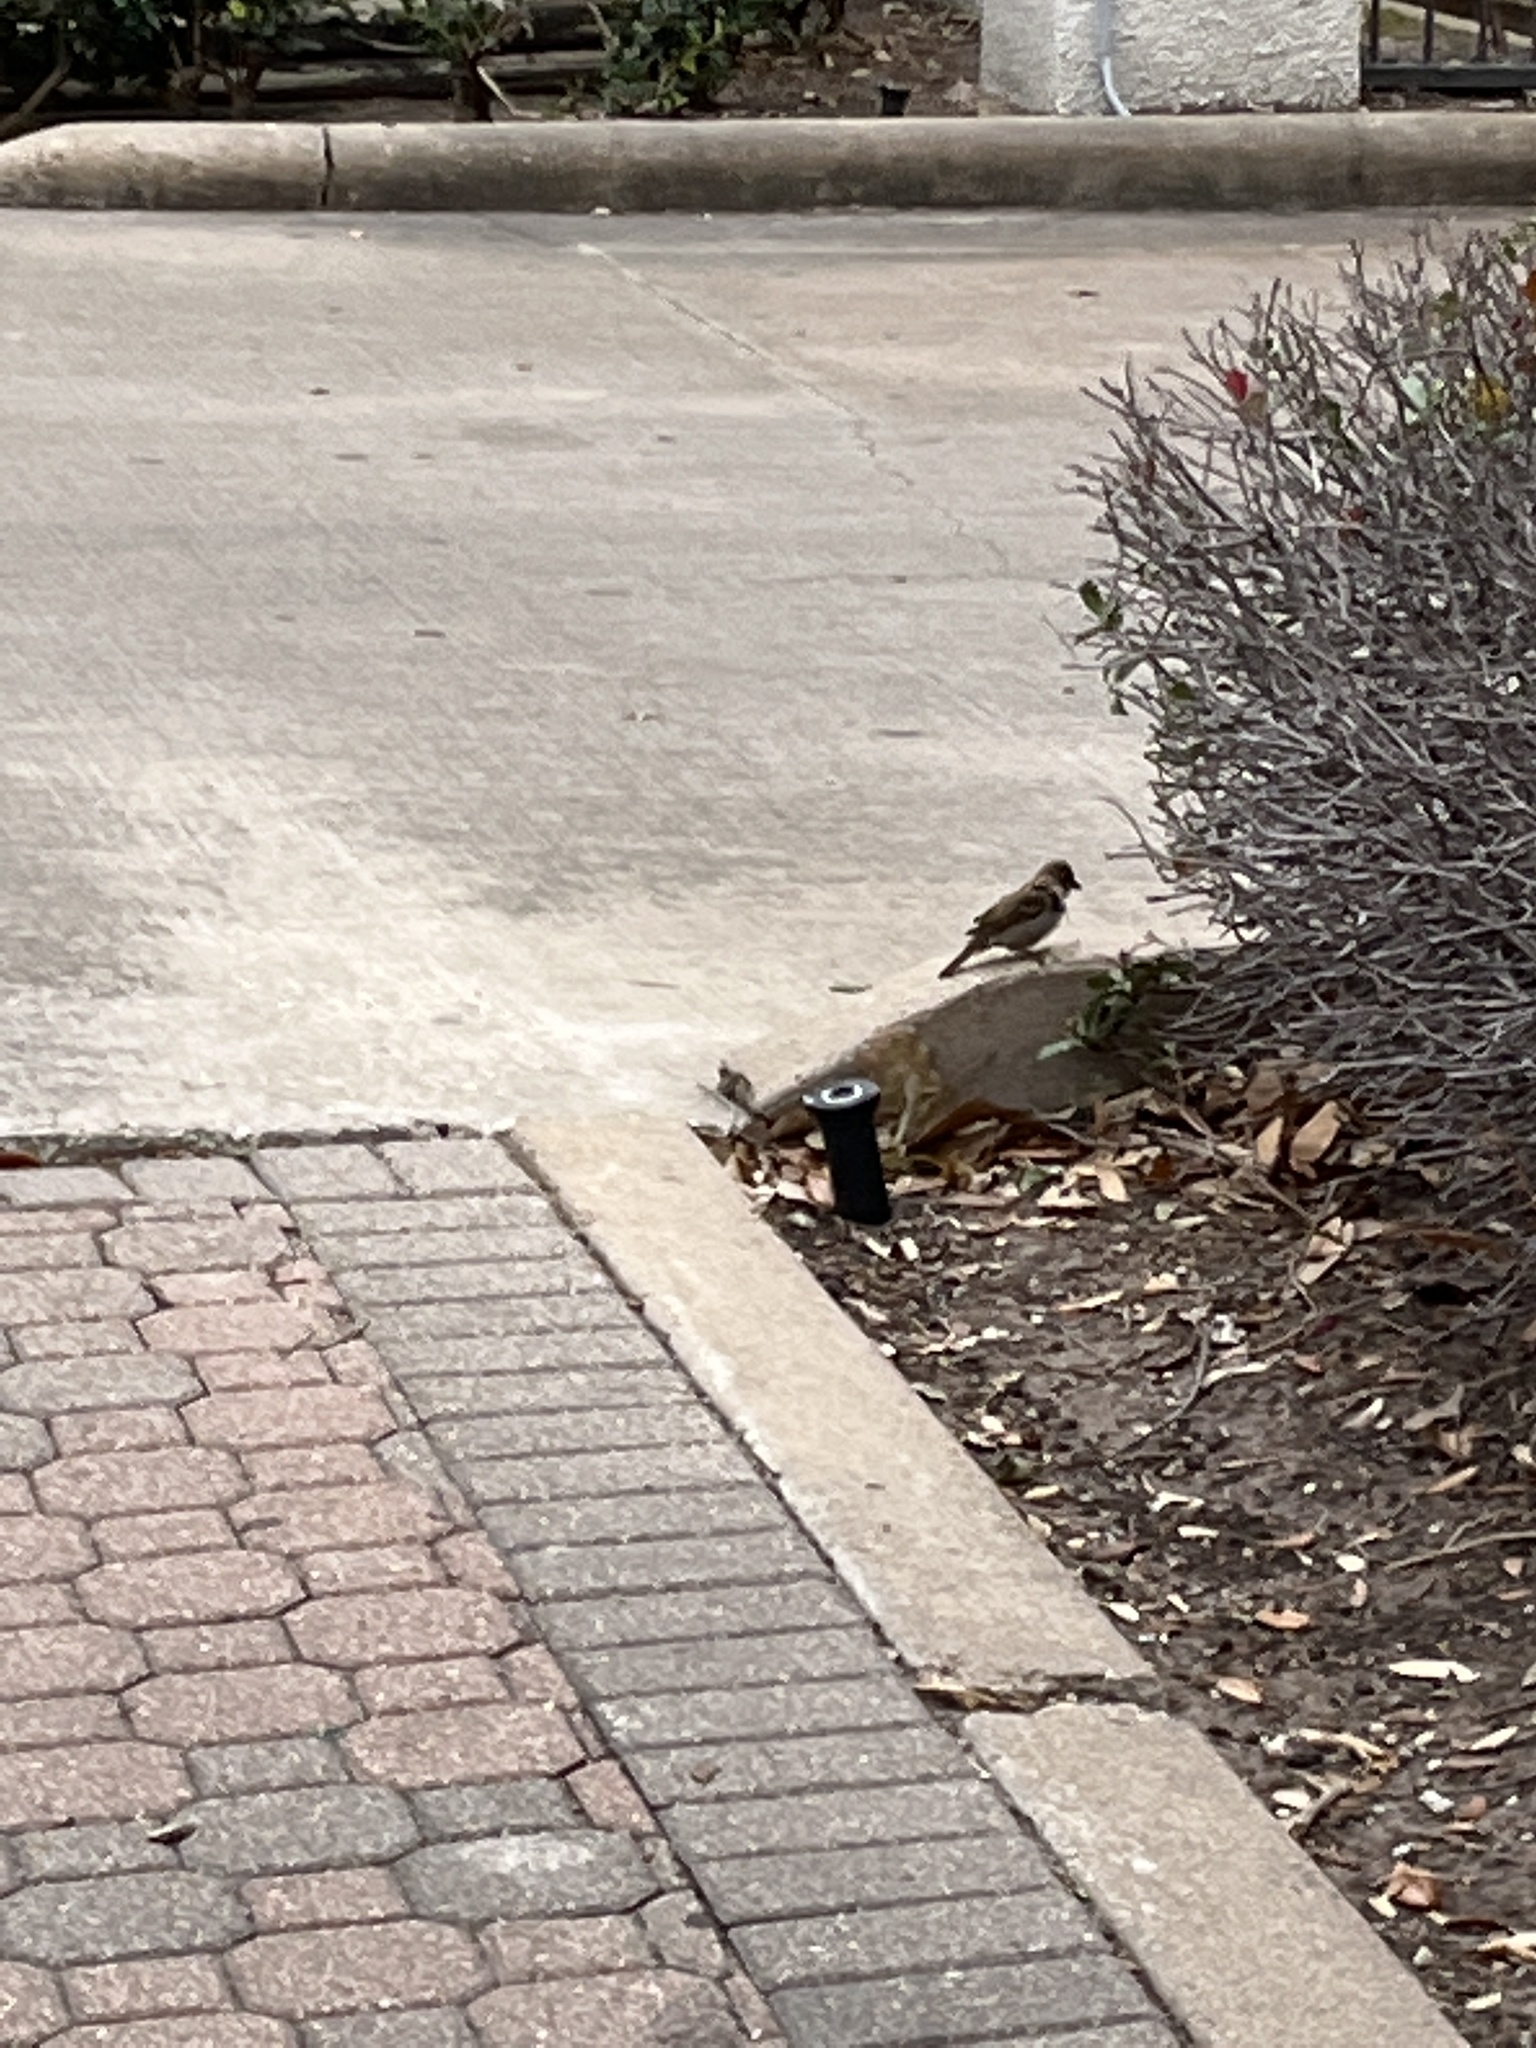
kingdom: Animalia
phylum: Chordata
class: Aves
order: Passeriformes
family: Passeridae
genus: Passer
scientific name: Passer domesticus
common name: House sparrow
